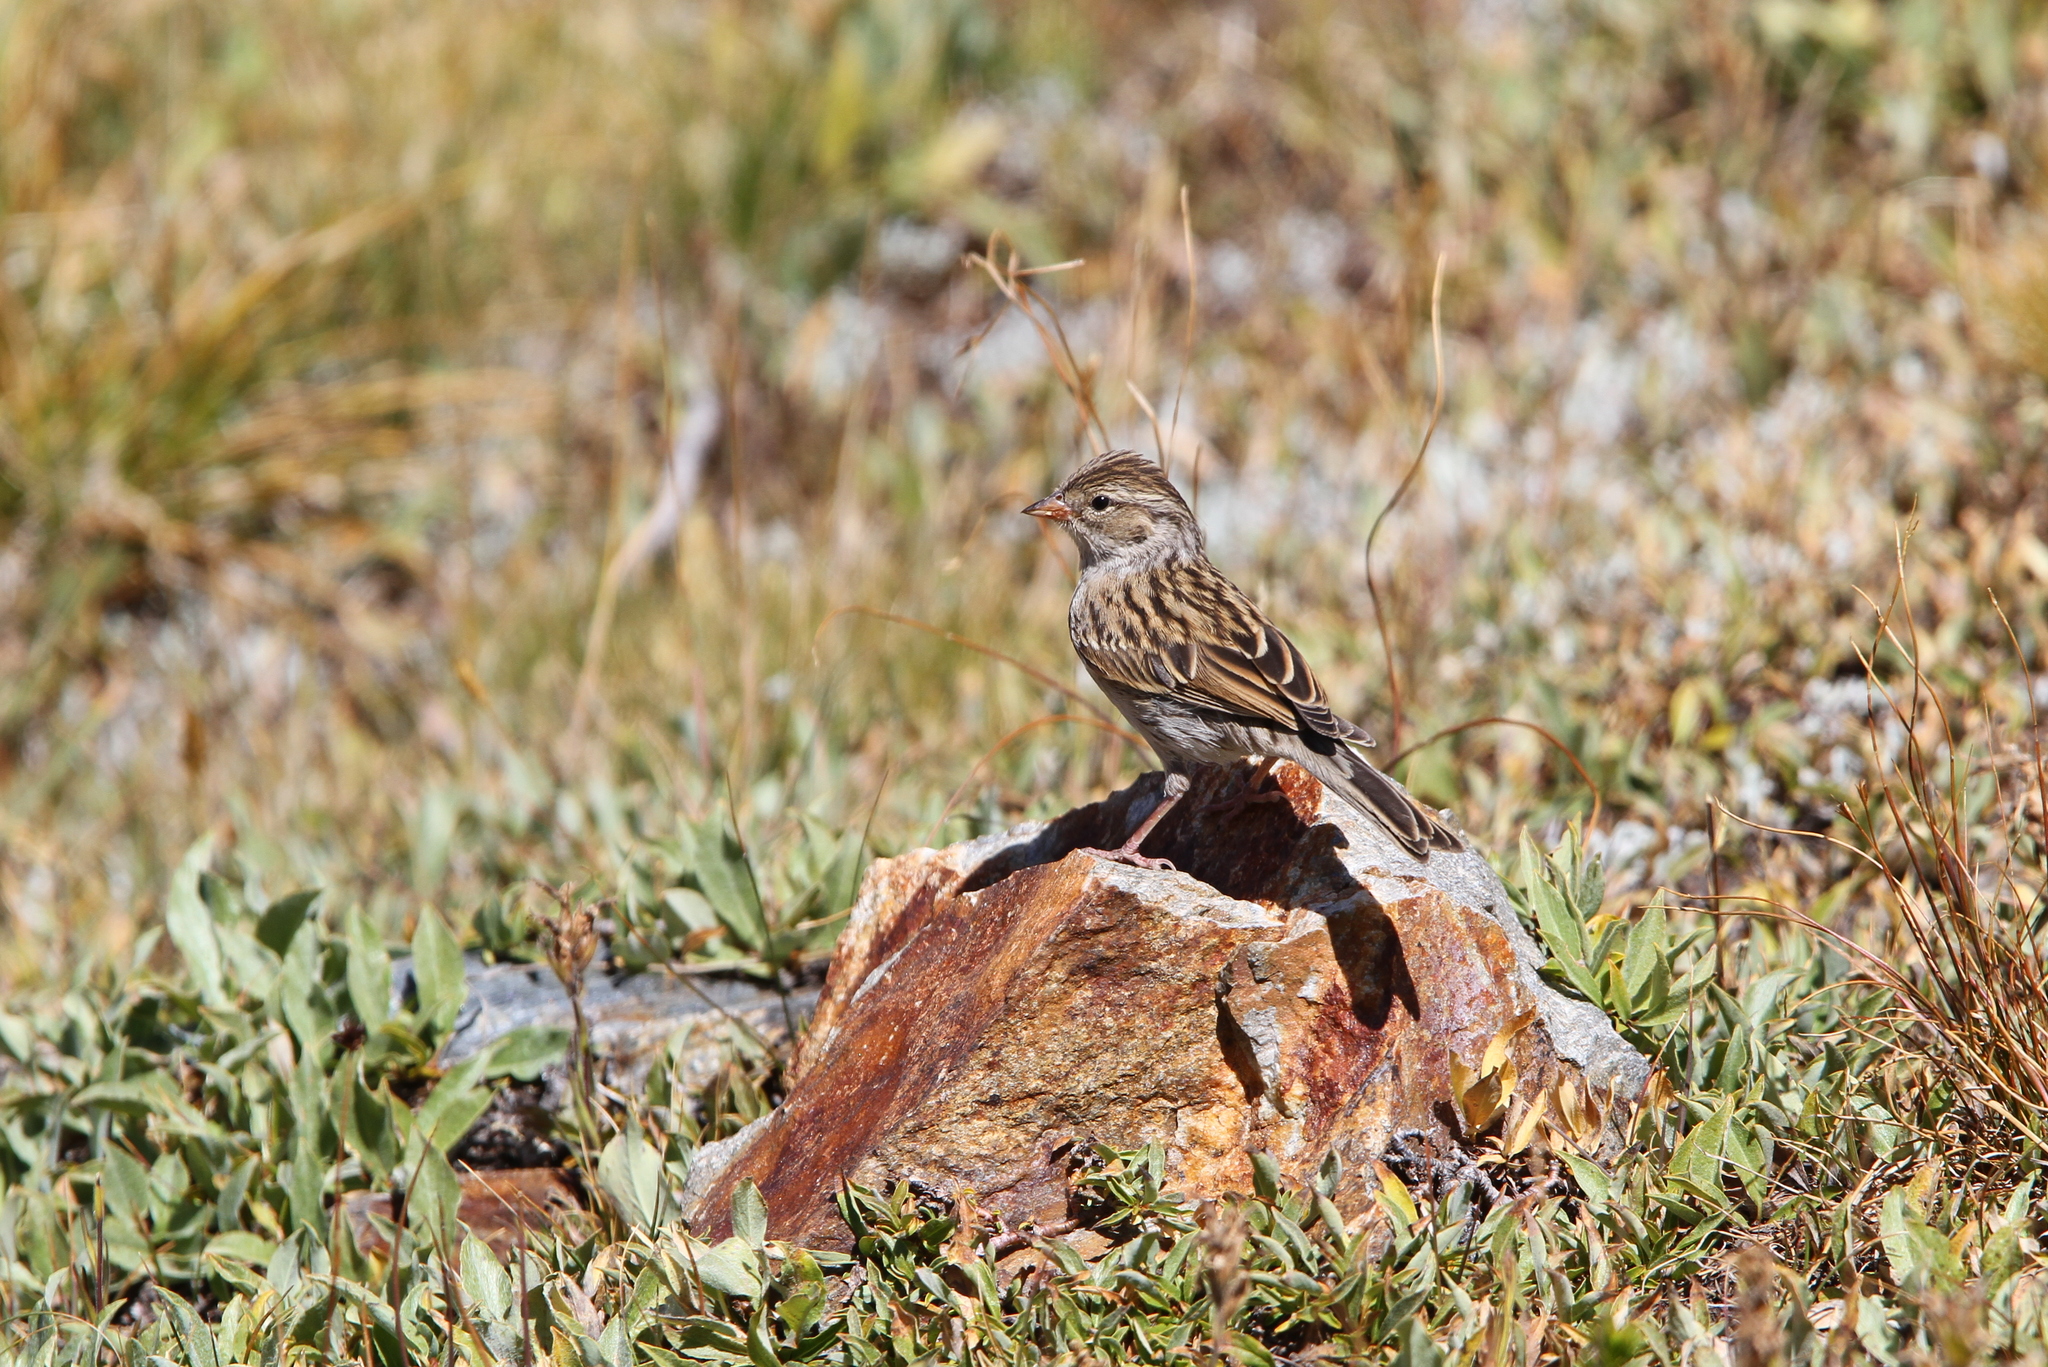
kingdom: Animalia
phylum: Chordata
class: Aves
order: Passeriformes
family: Passerellidae
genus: Spizella
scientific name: Spizella breweri
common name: Brewer's sparrow
